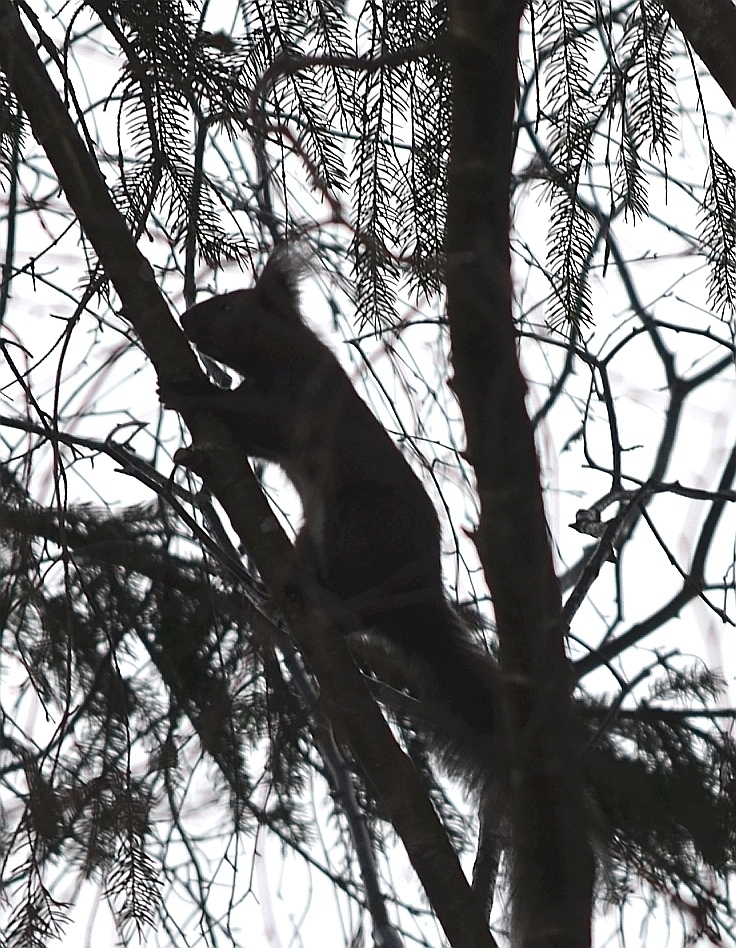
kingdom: Animalia
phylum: Chordata
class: Mammalia
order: Rodentia
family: Sciuridae
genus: Sciurus
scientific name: Sciurus vulgaris
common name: Eurasian red squirrel
